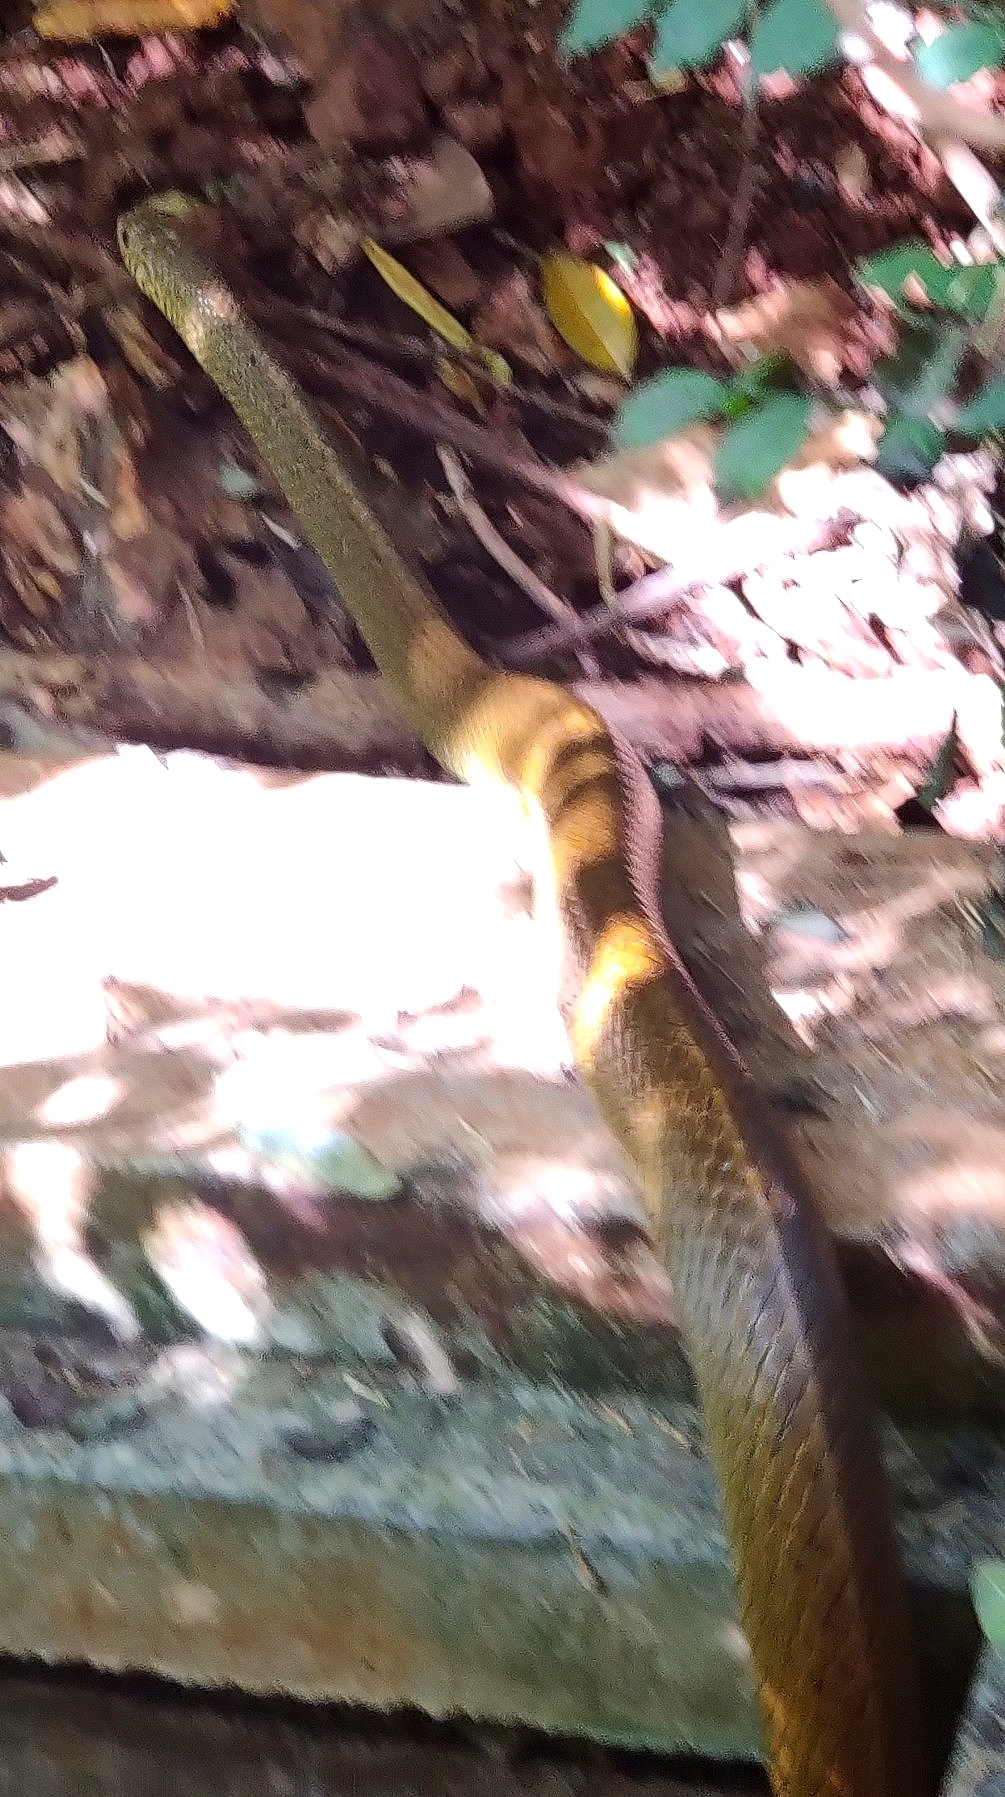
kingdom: Animalia
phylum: Chordata
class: Squamata
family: Colubridae
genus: Ptyas
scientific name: Ptyas mucosa
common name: Oriental ratsnake
